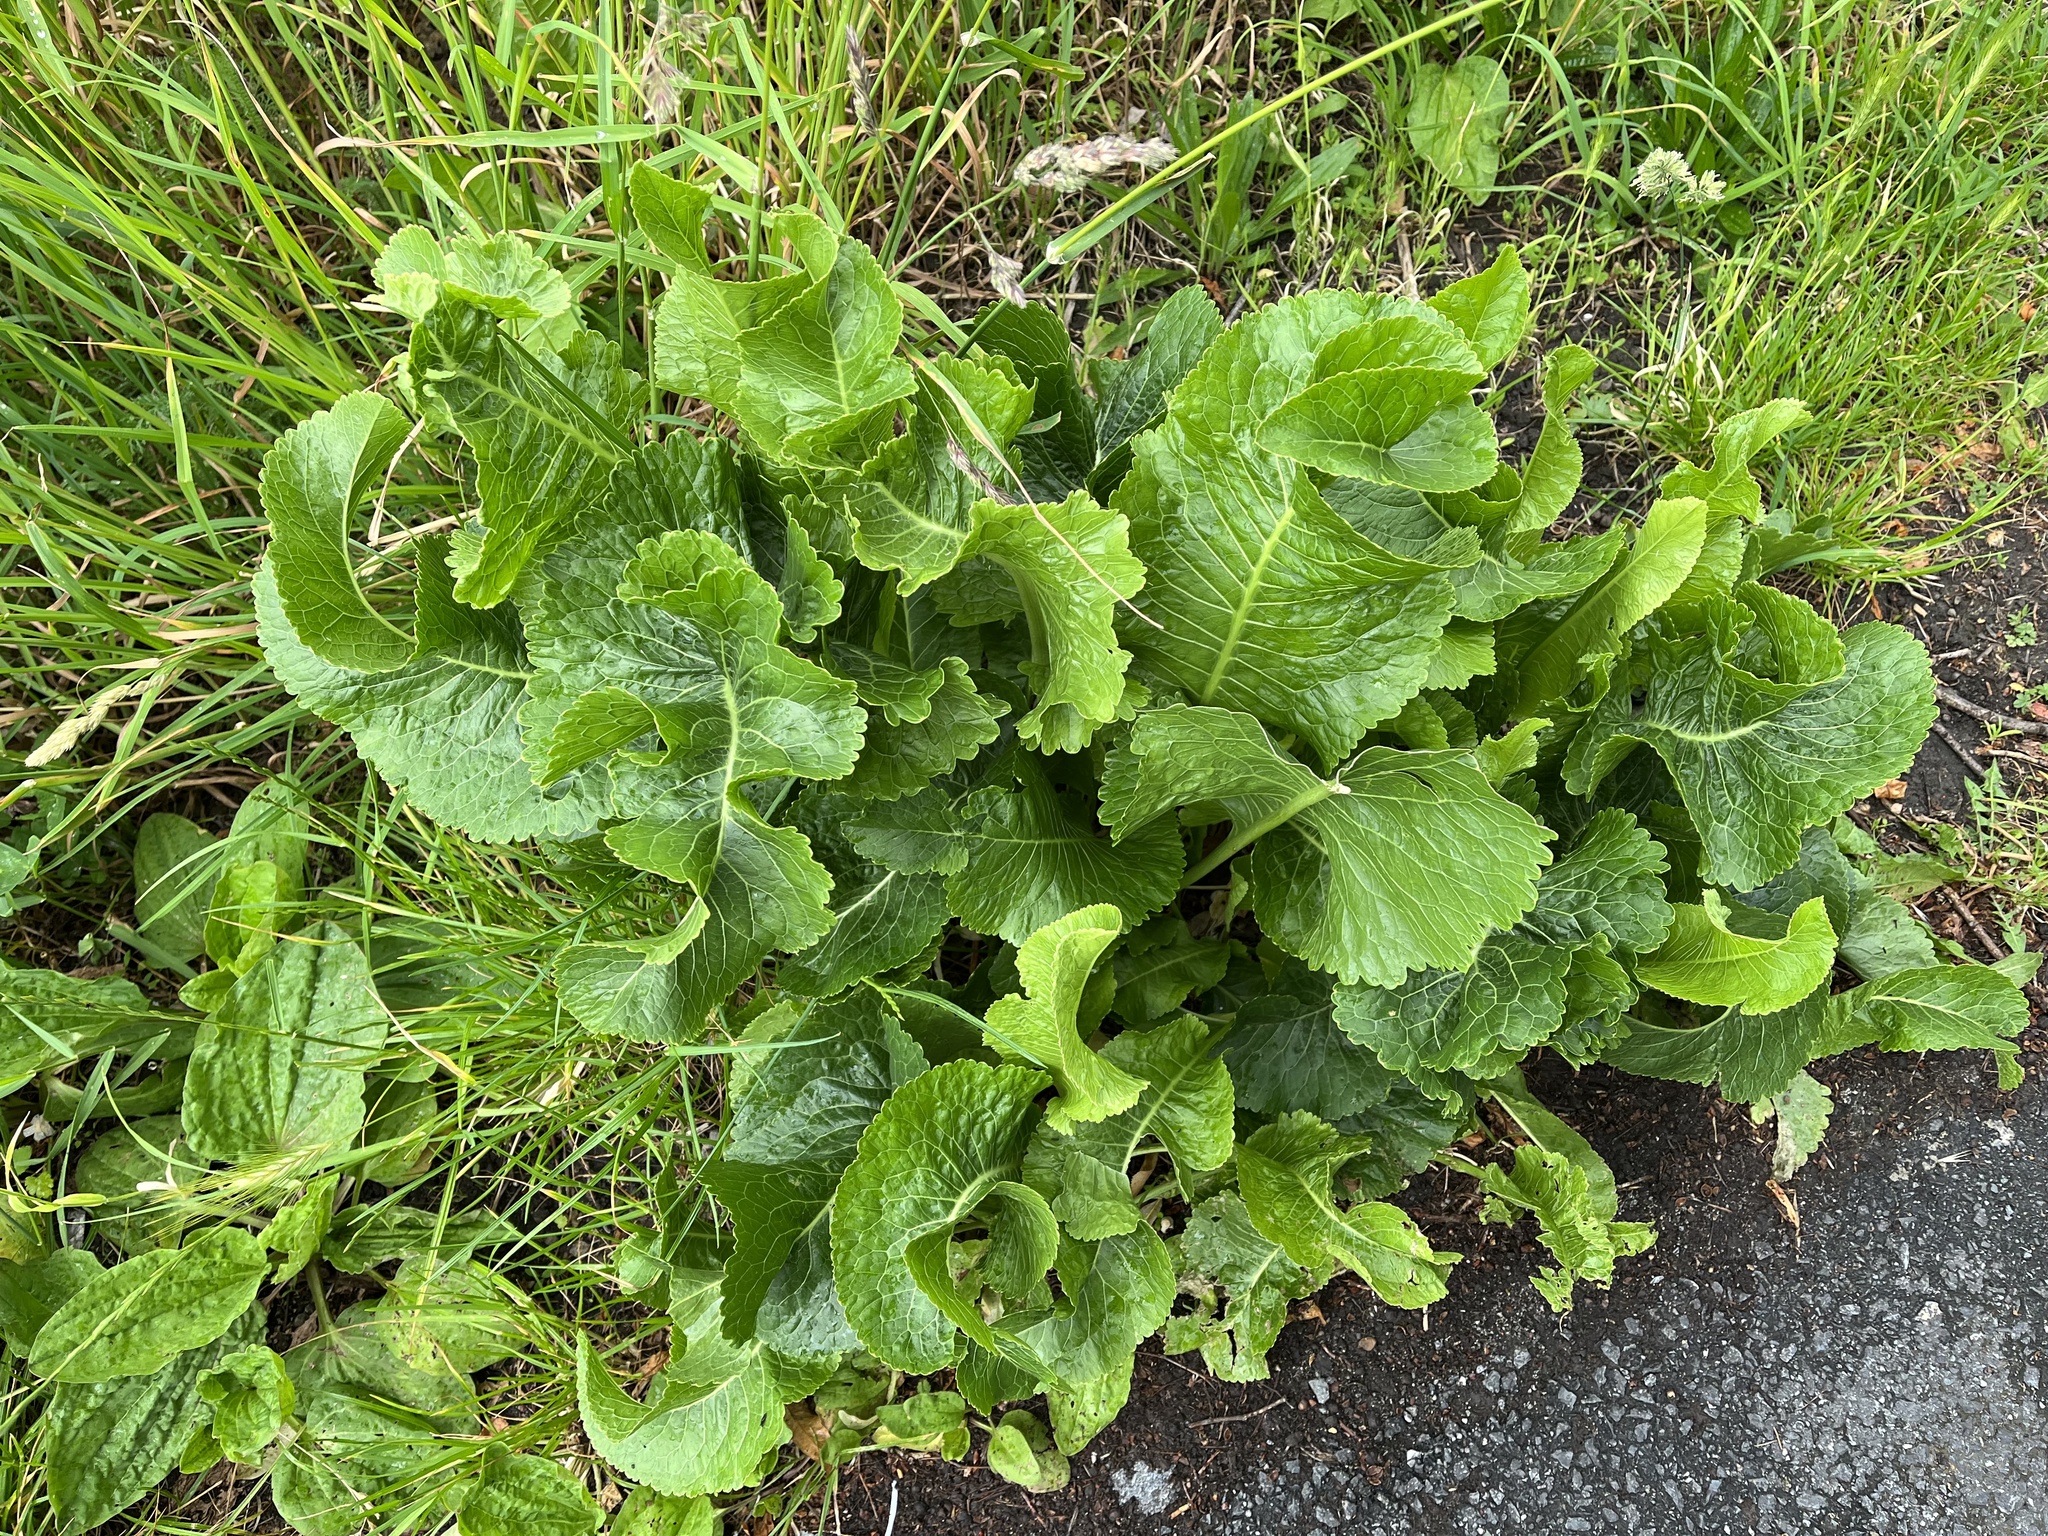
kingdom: Plantae
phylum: Tracheophyta
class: Magnoliopsida
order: Brassicales
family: Brassicaceae
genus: Armoracia
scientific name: Armoracia rusticana
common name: Horseradish
